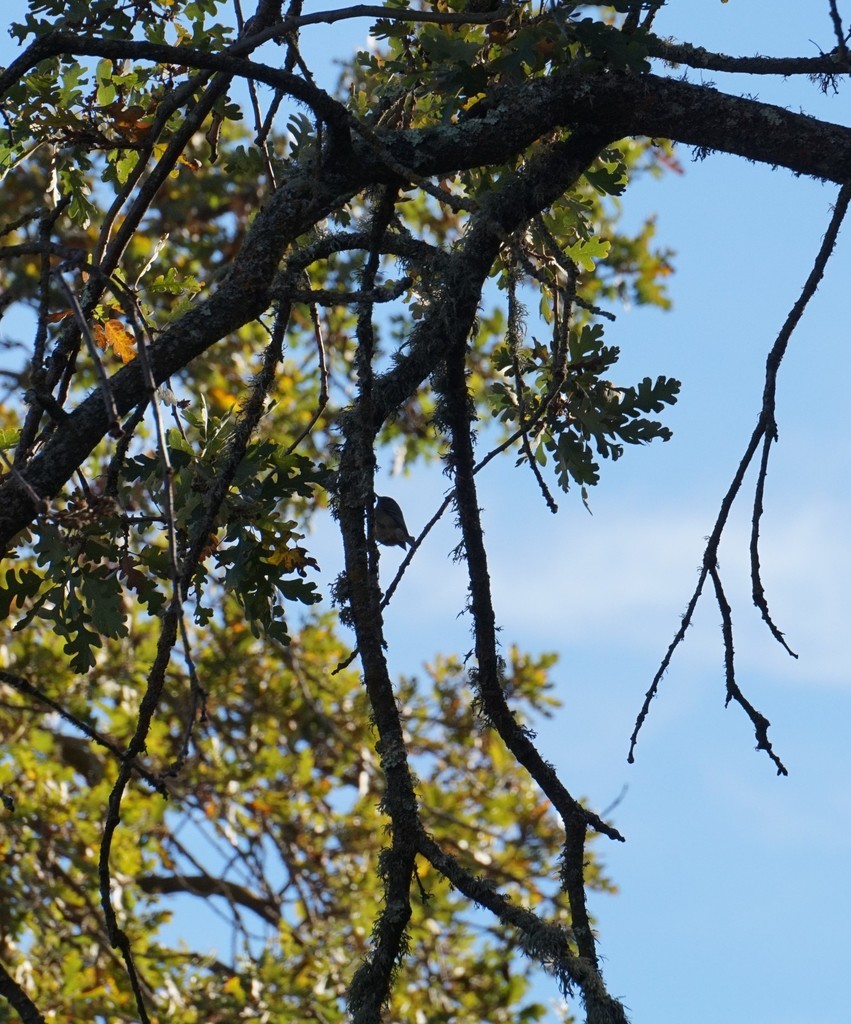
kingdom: Animalia
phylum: Chordata
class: Aves
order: Passeriformes
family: Regulidae
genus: Regulus
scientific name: Regulus calendula
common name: Ruby-crowned kinglet
